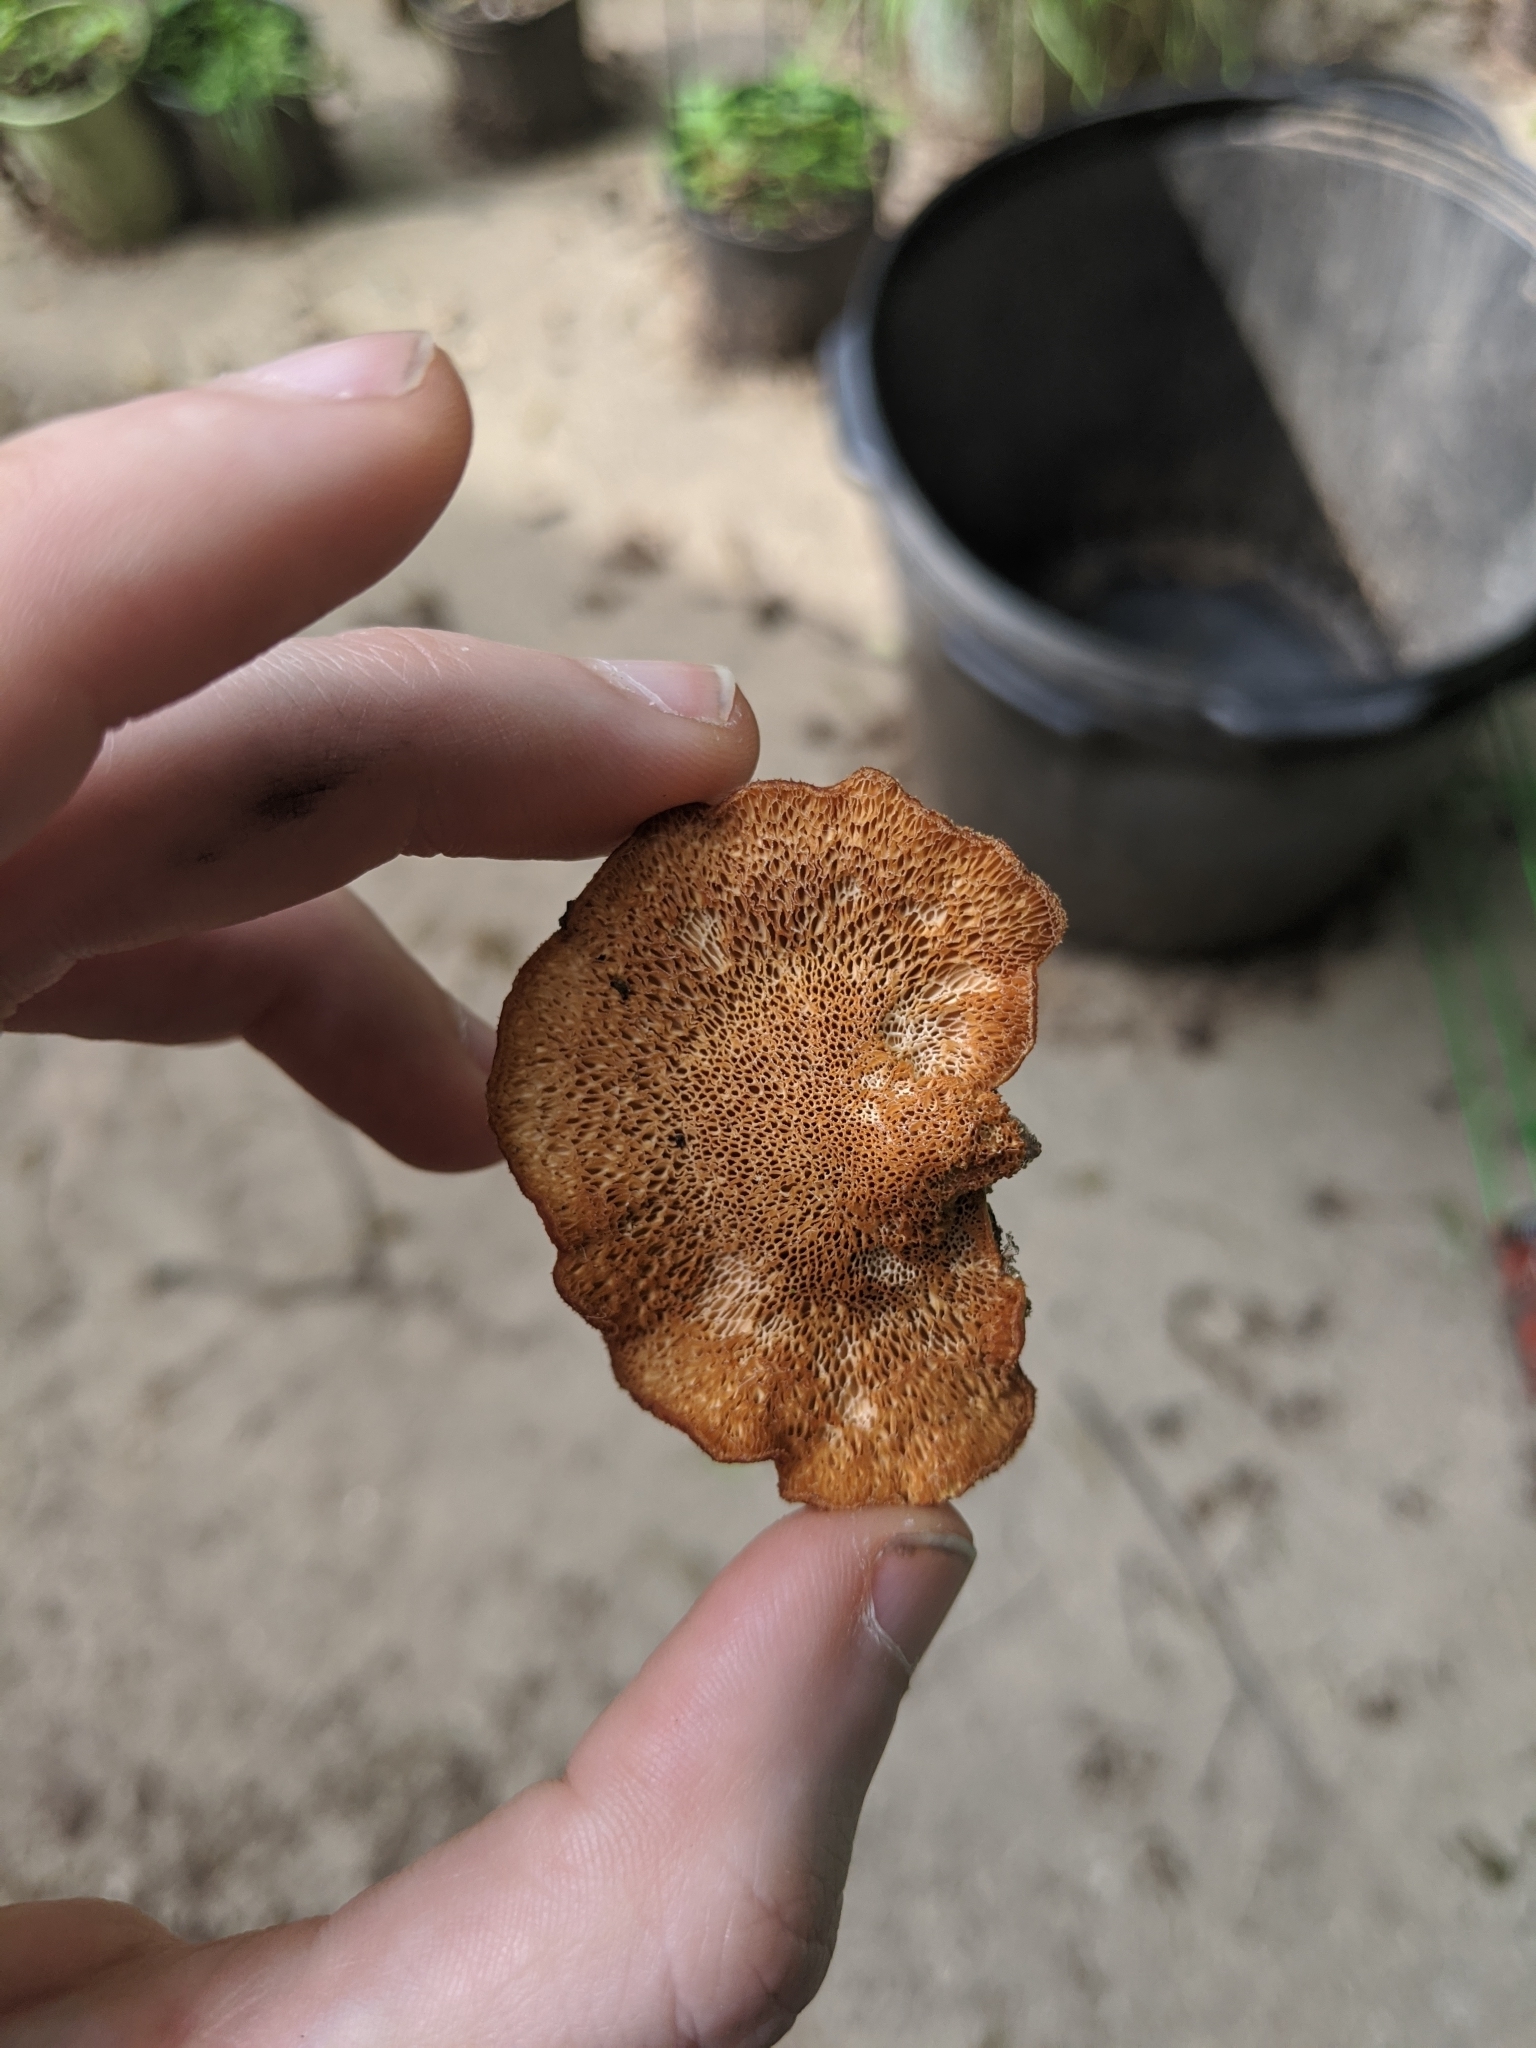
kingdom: Fungi
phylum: Basidiomycota
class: Agaricomycetes
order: Polyporales
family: Polyporaceae
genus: Neofavolus
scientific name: Neofavolus alveolaris
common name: Hexagonal-pored polypore
